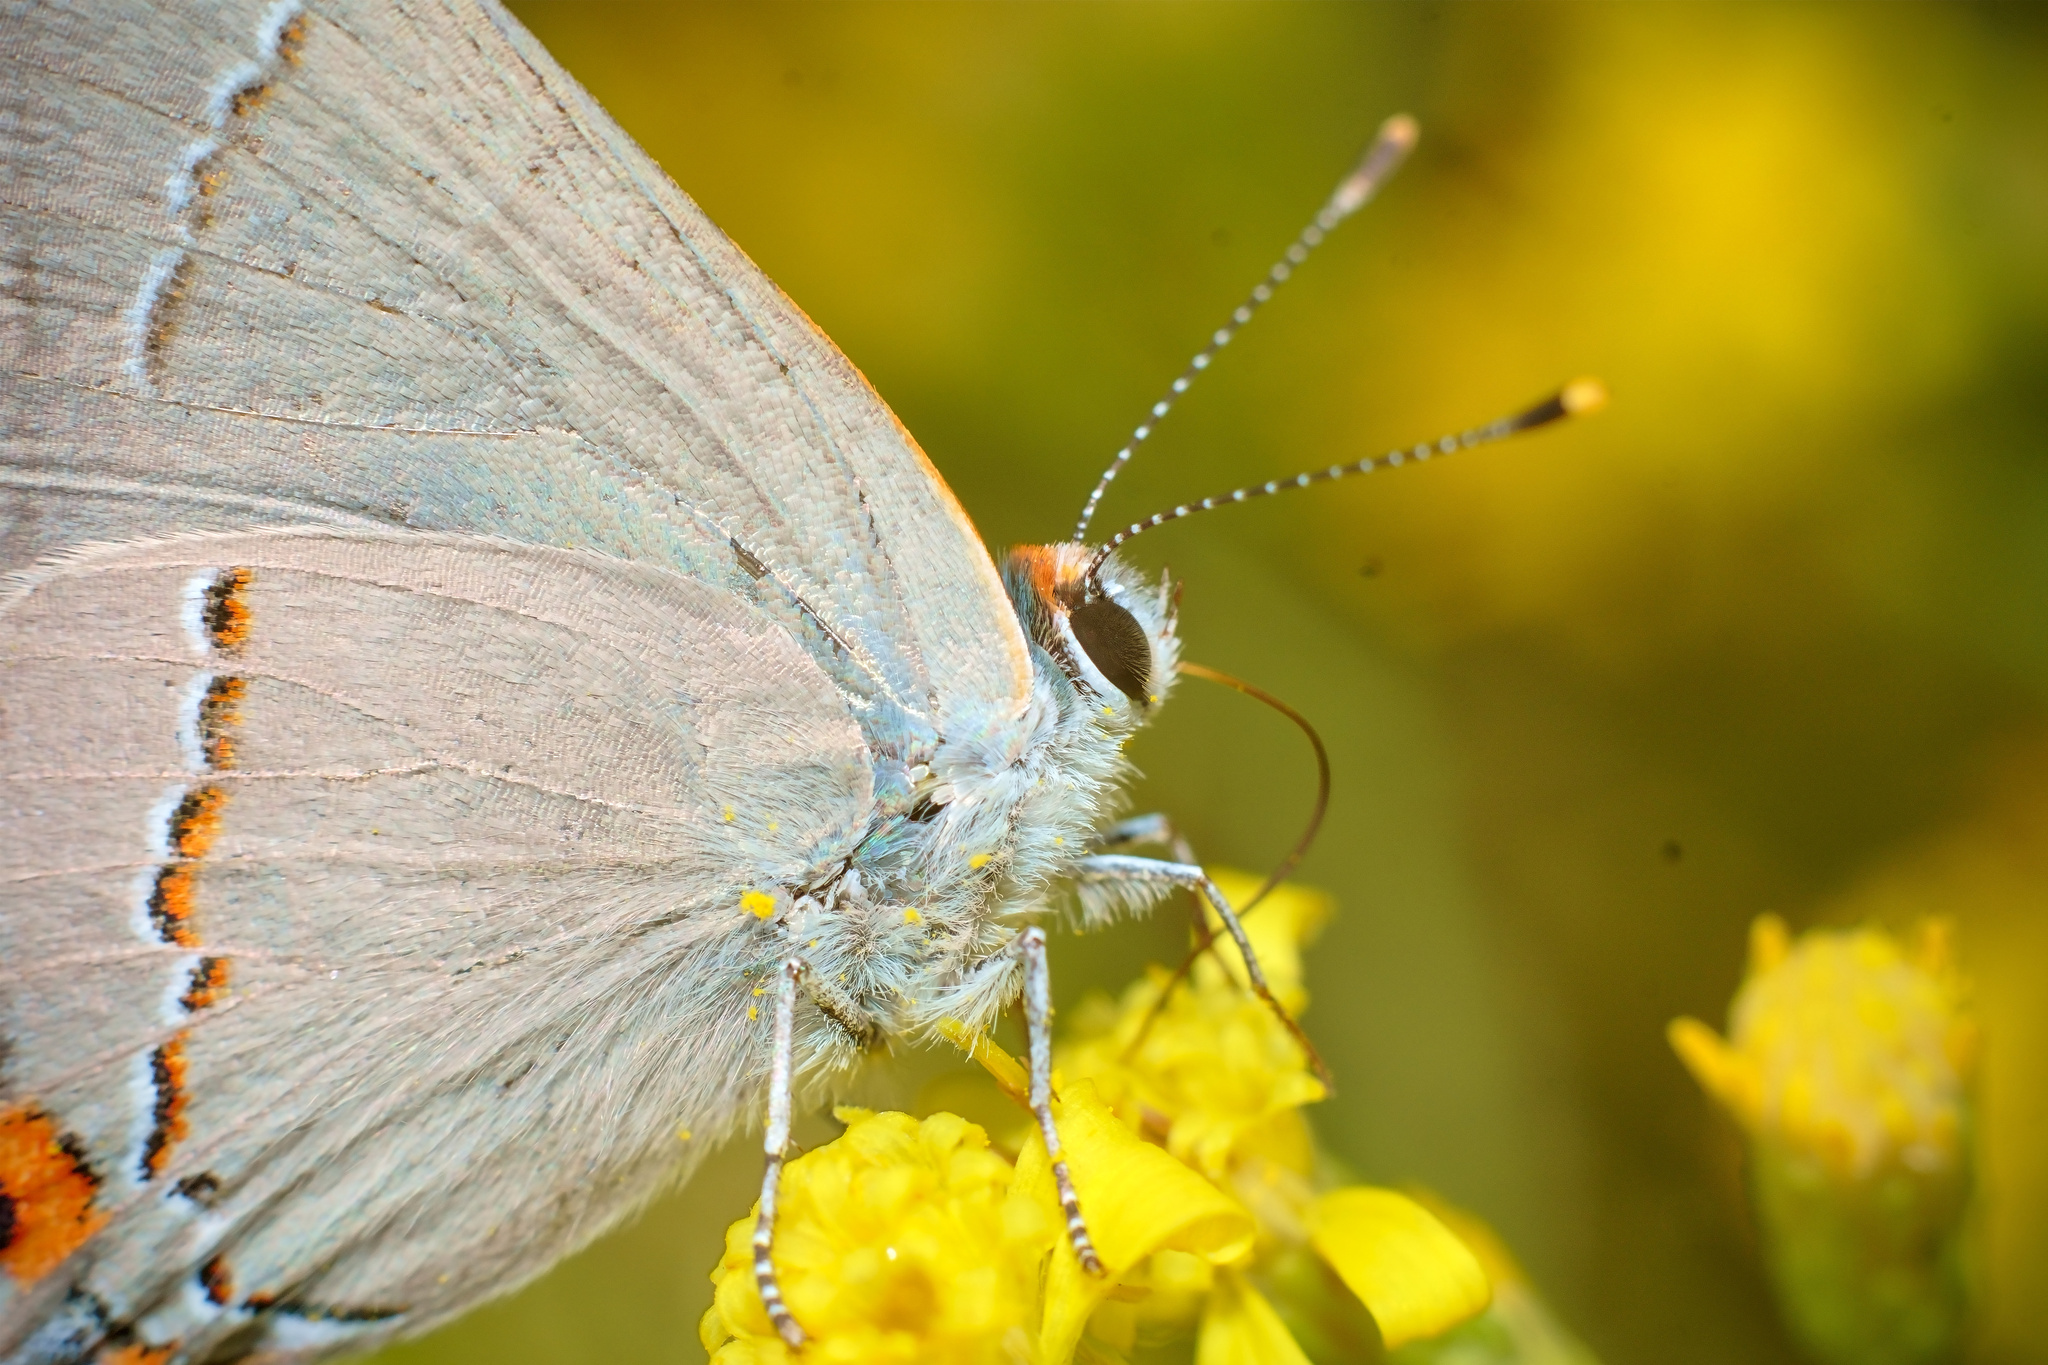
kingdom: Animalia
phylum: Arthropoda
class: Insecta
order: Lepidoptera
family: Lycaenidae
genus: Strymon
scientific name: Strymon melinus
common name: Gray hairstreak
